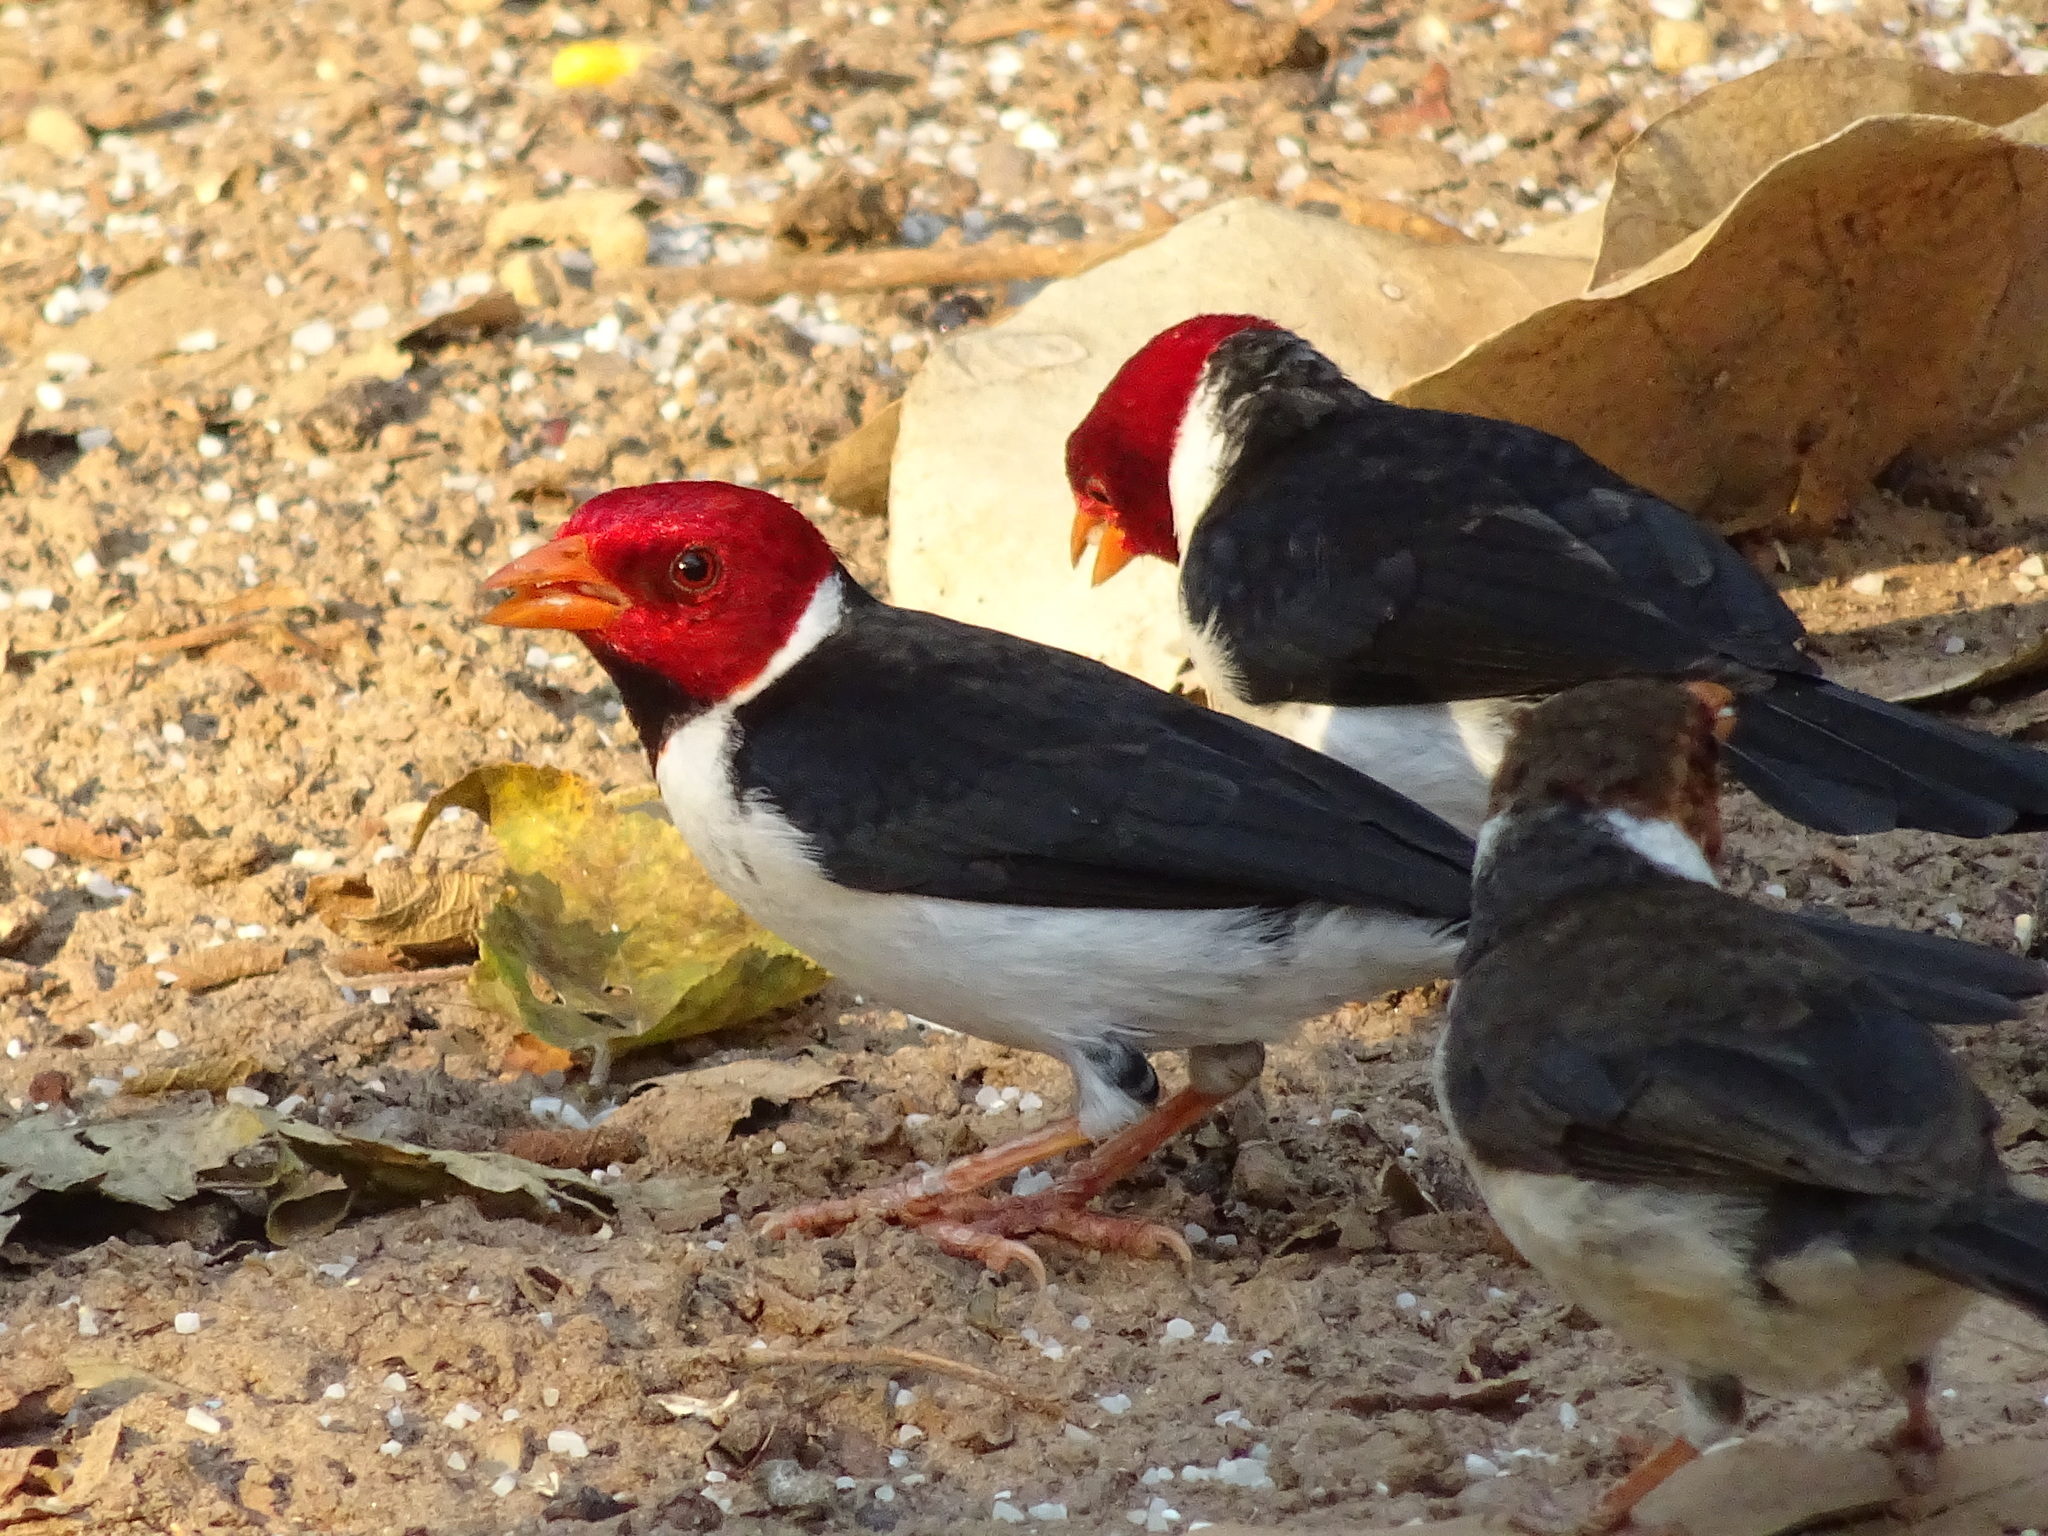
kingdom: Animalia
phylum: Chordata
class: Aves
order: Passeriformes
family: Thraupidae
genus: Paroaria
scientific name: Paroaria capitata
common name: Yellow-billed cardinal
